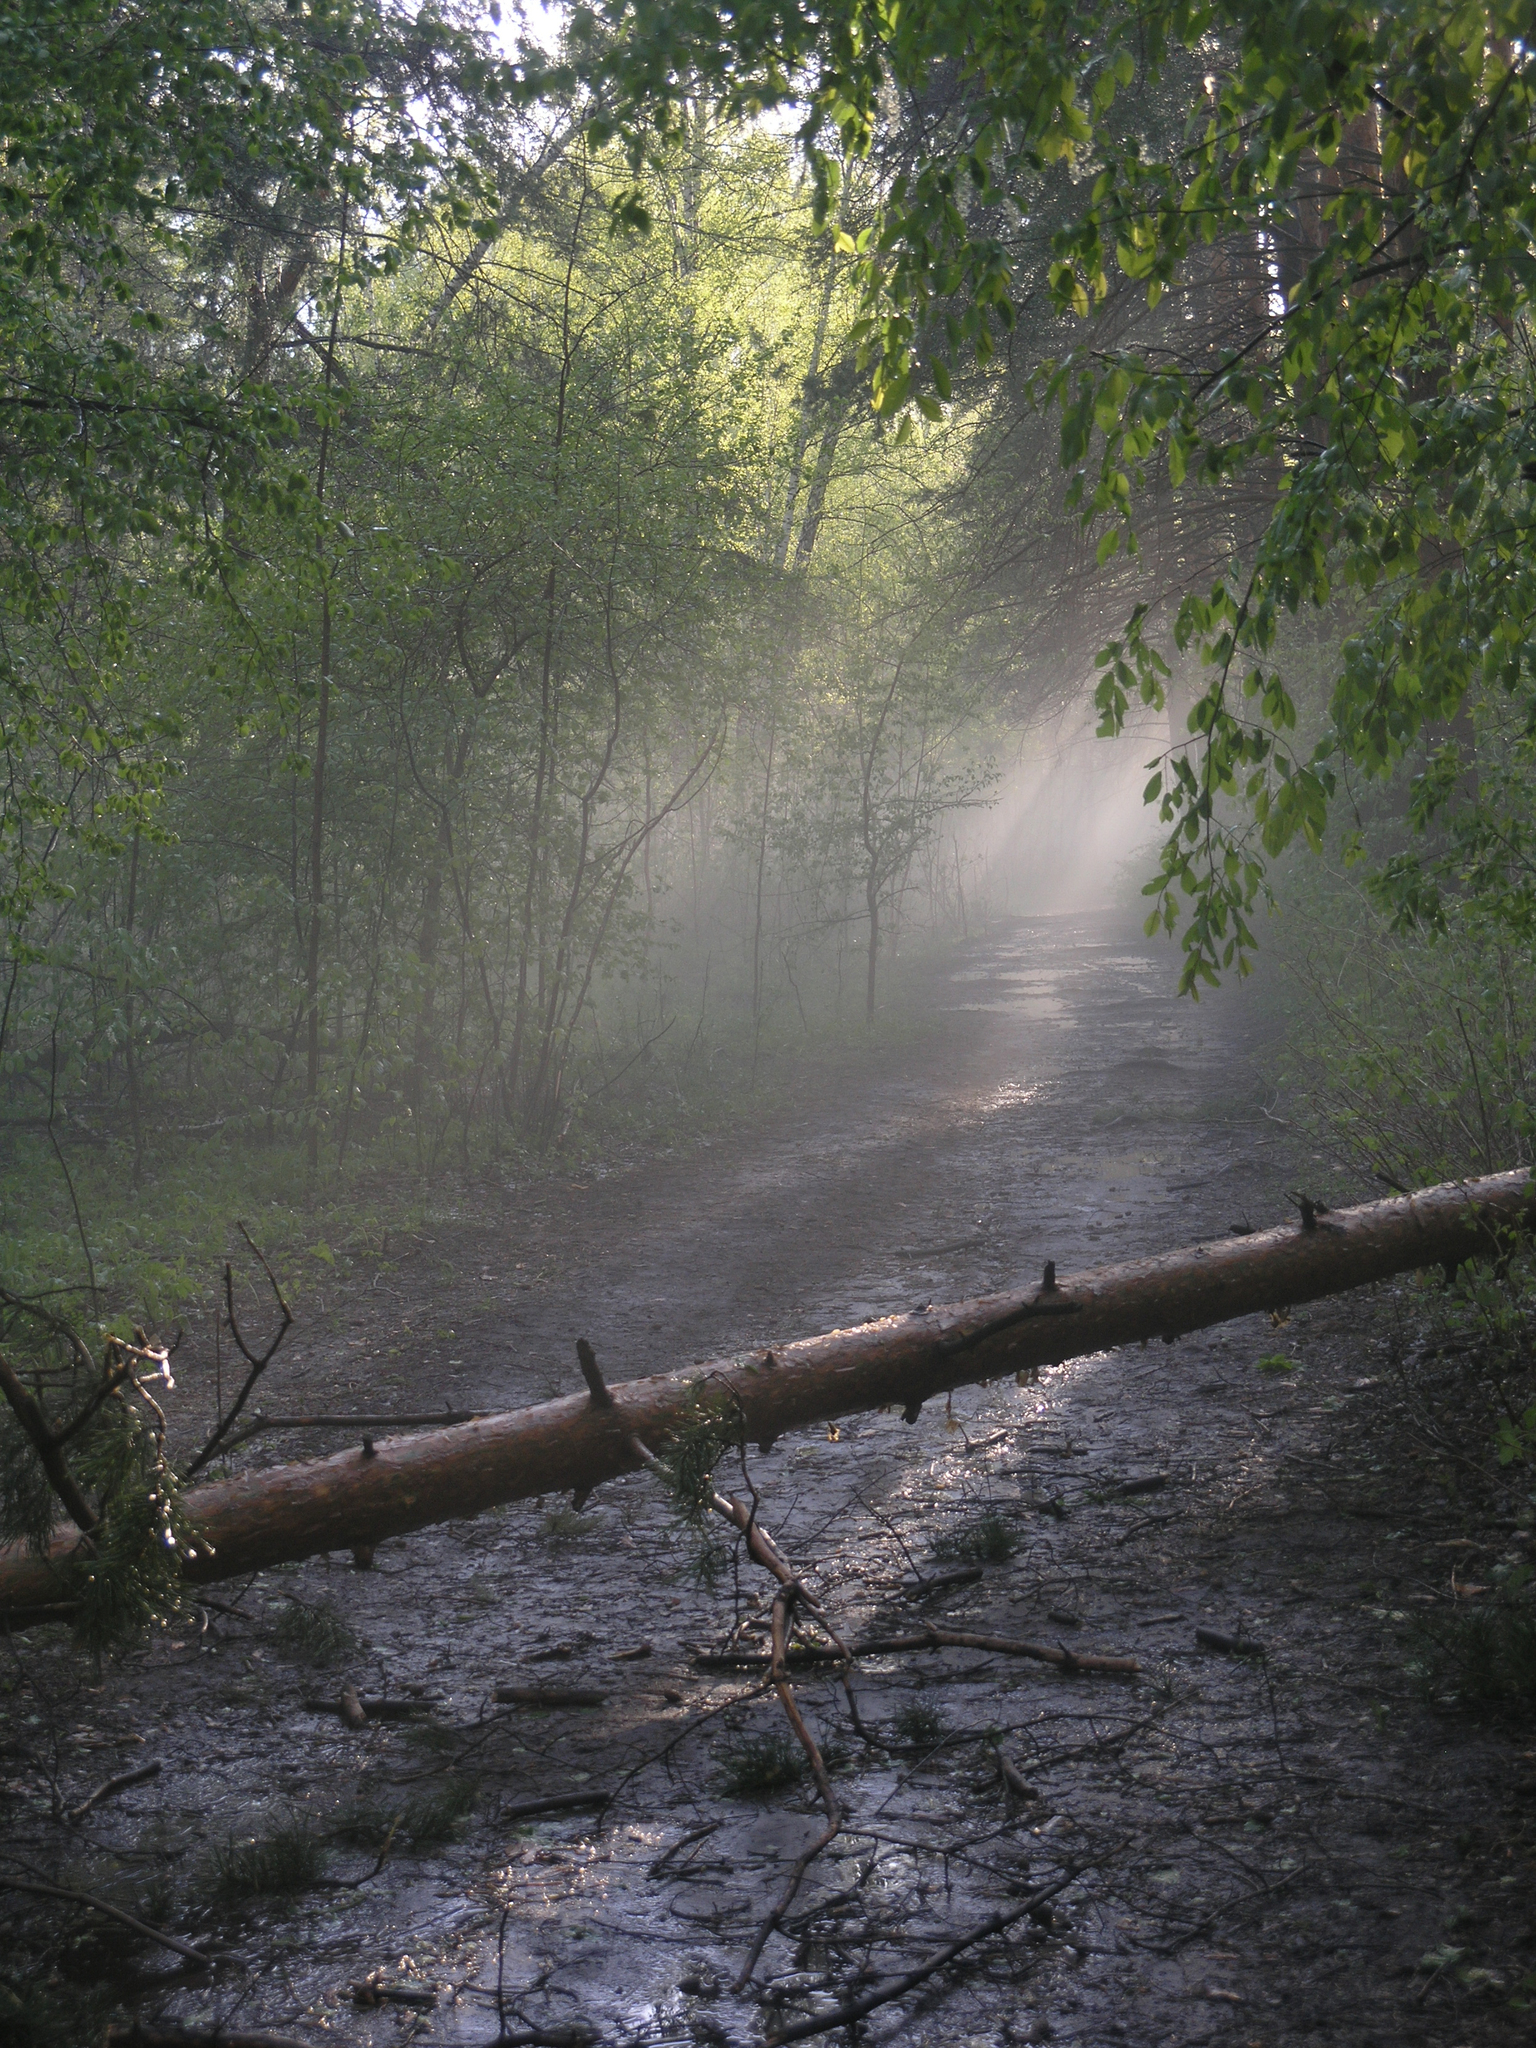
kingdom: Plantae
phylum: Tracheophyta
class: Pinopsida
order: Pinales
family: Pinaceae
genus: Pinus
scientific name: Pinus sylvestris
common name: Scots pine
